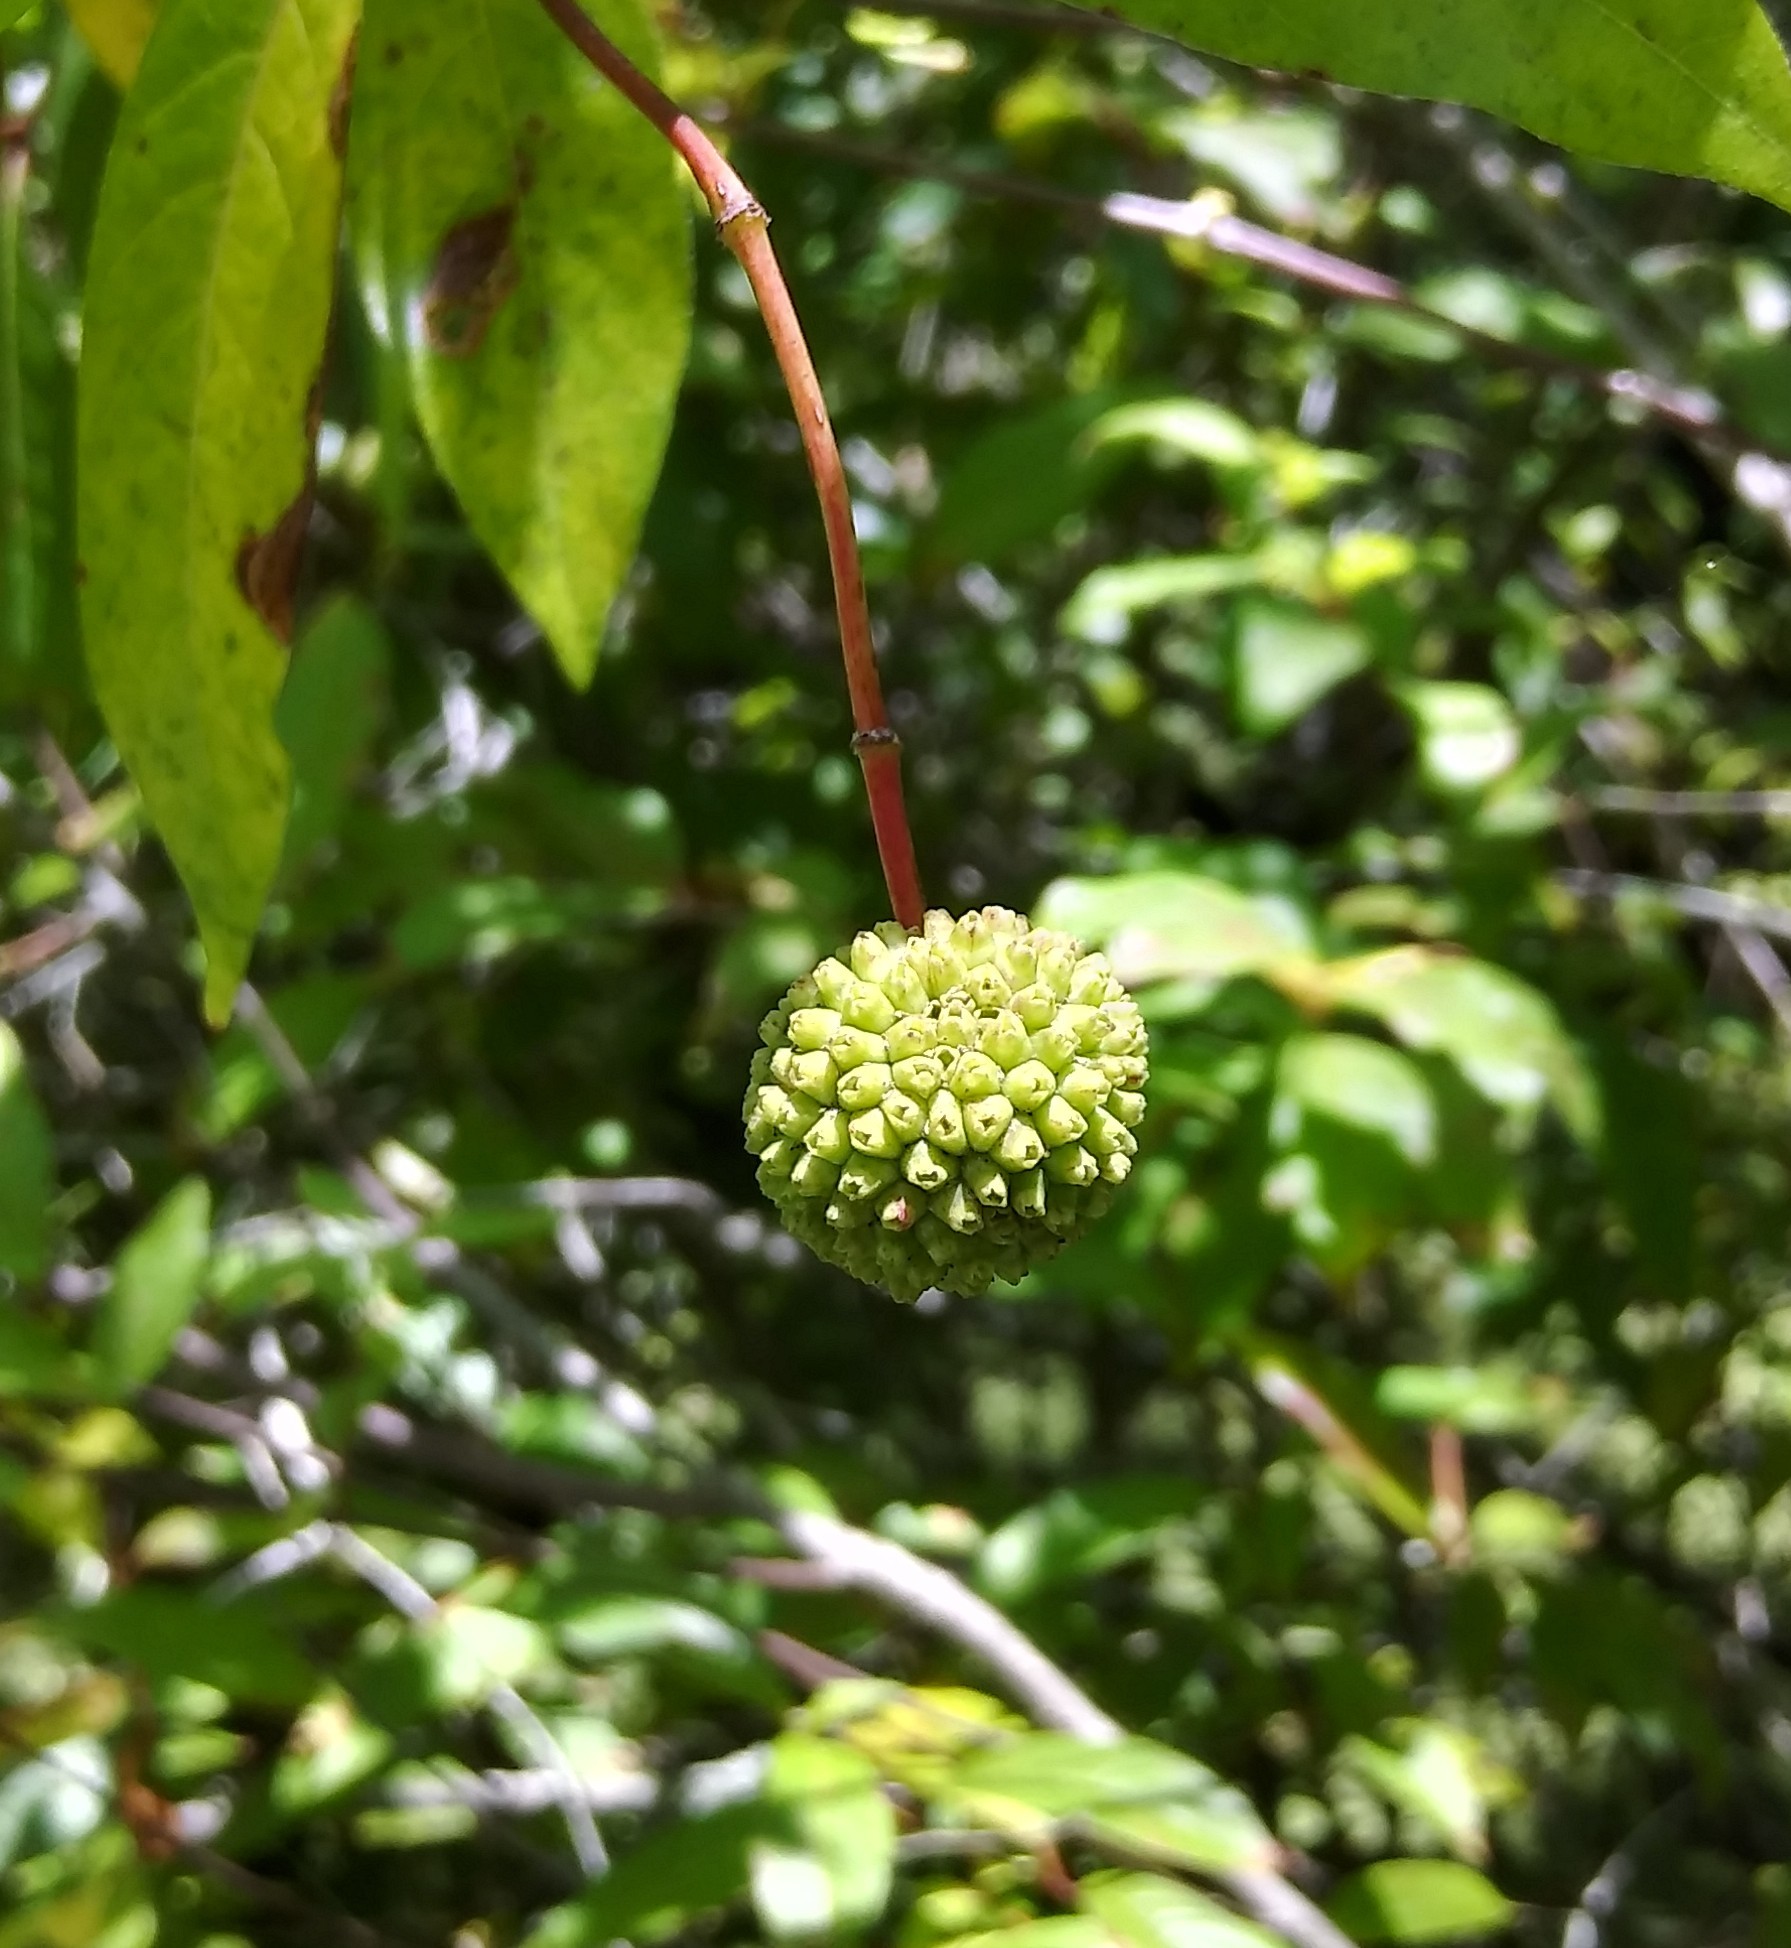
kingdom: Plantae
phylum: Tracheophyta
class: Magnoliopsida
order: Gentianales
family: Rubiaceae
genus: Cephalanthus
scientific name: Cephalanthus occidentalis
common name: Button-willow
